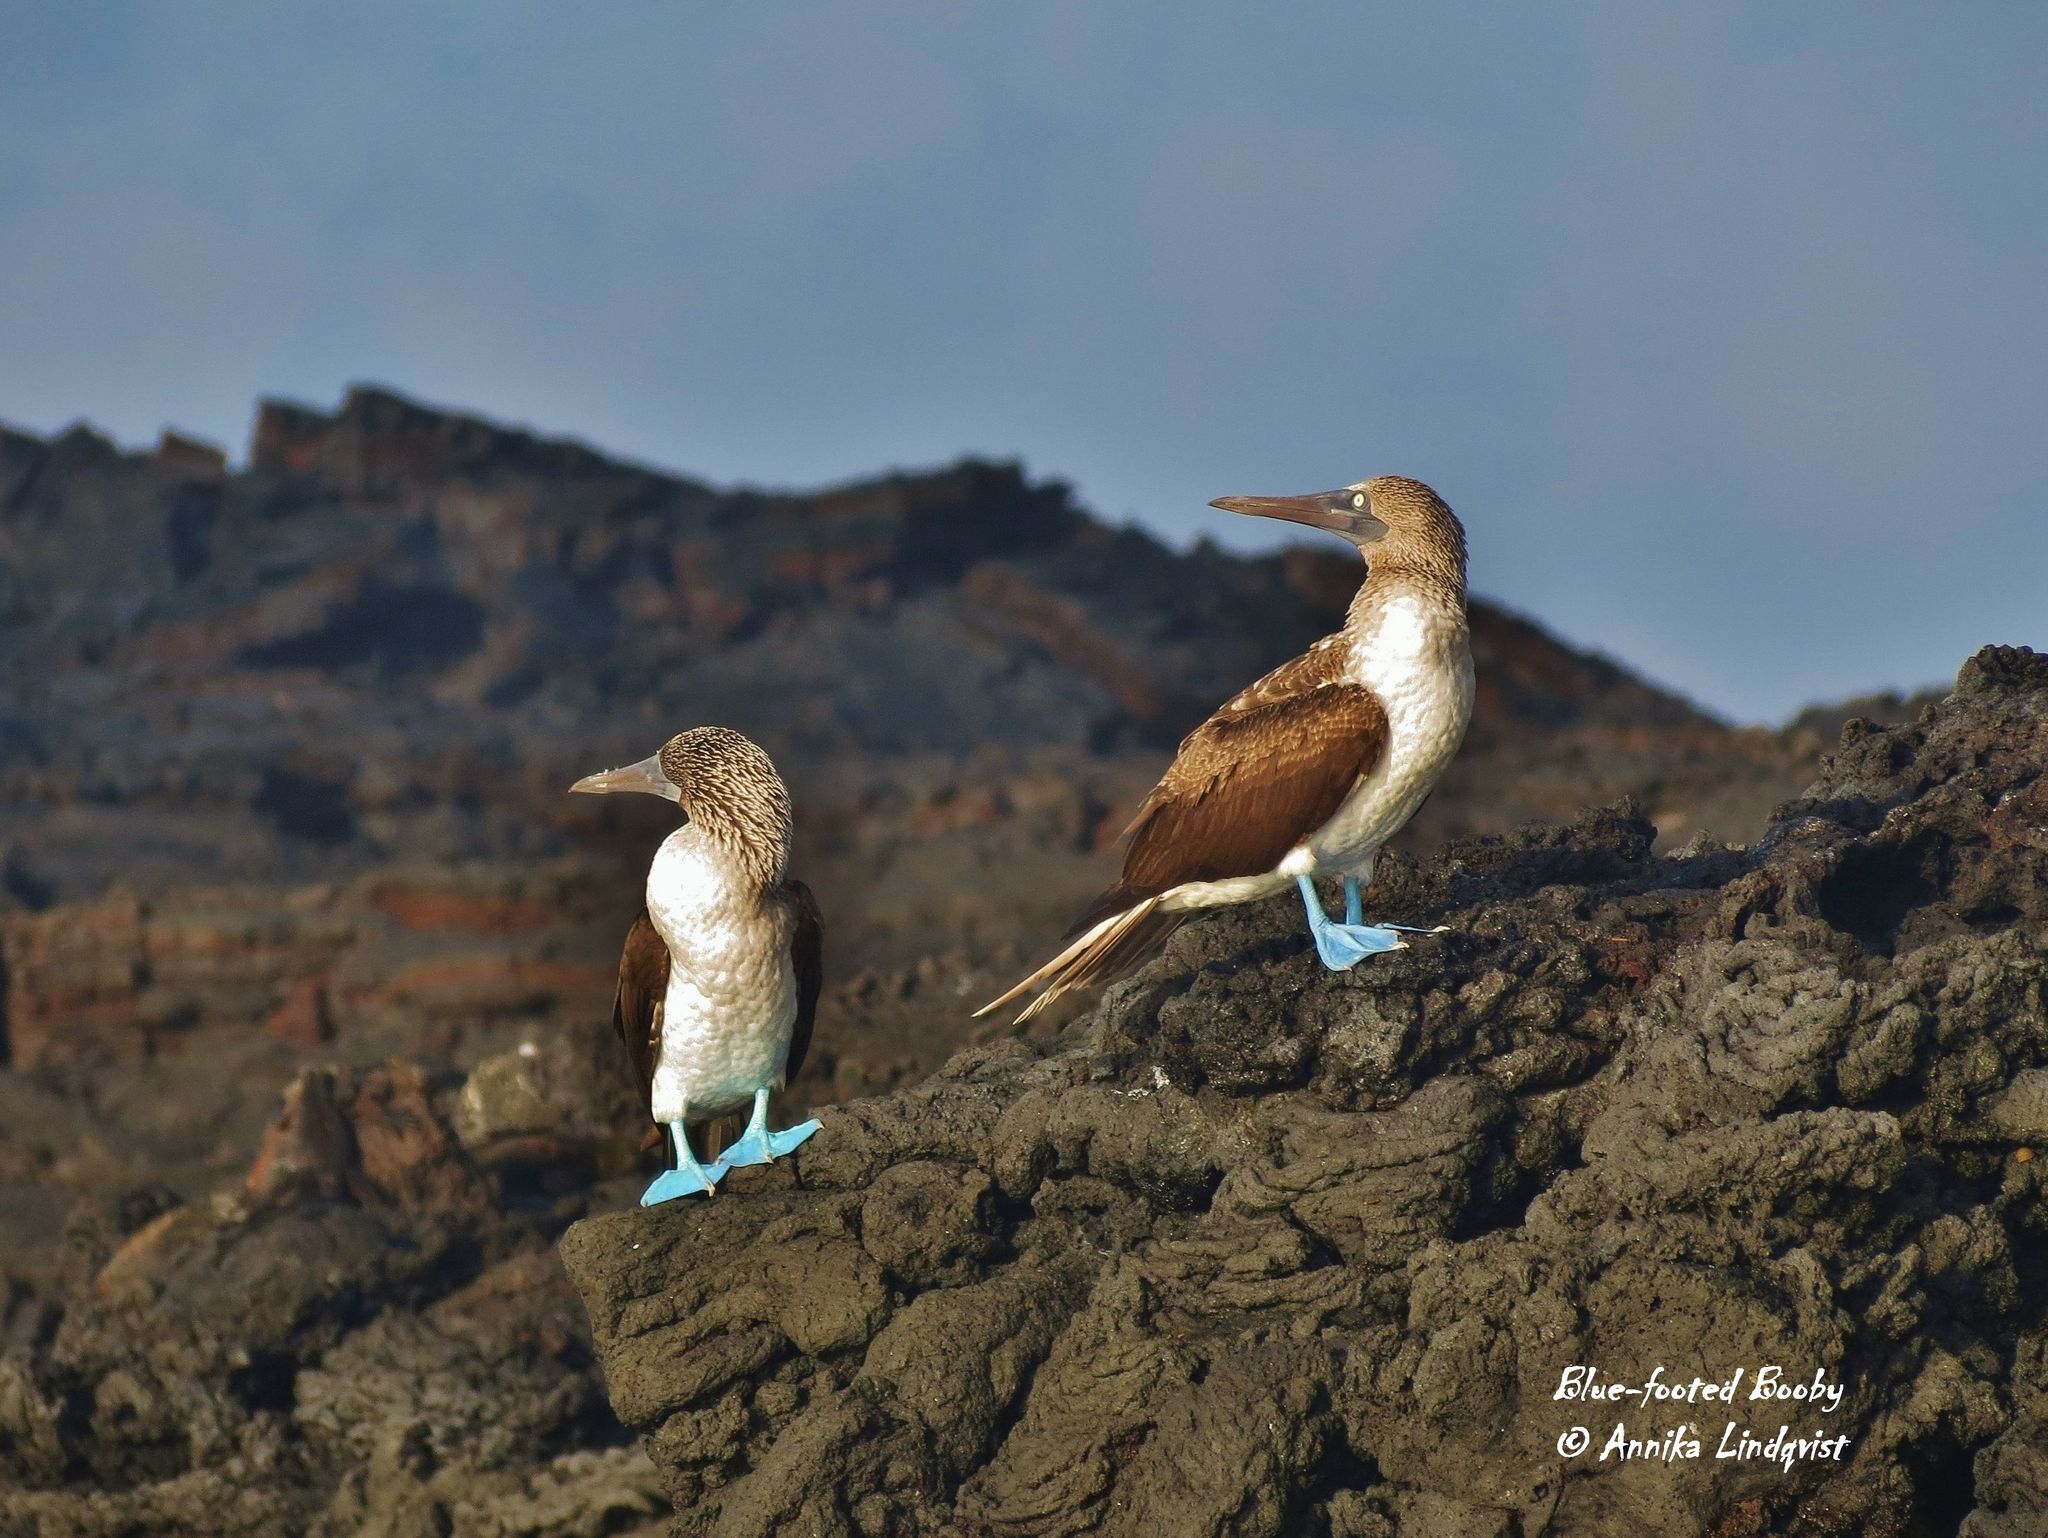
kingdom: Animalia
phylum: Chordata
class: Aves
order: Suliformes
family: Sulidae
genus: Sula
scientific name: Sula nebouxii
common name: Blue-footed booby
